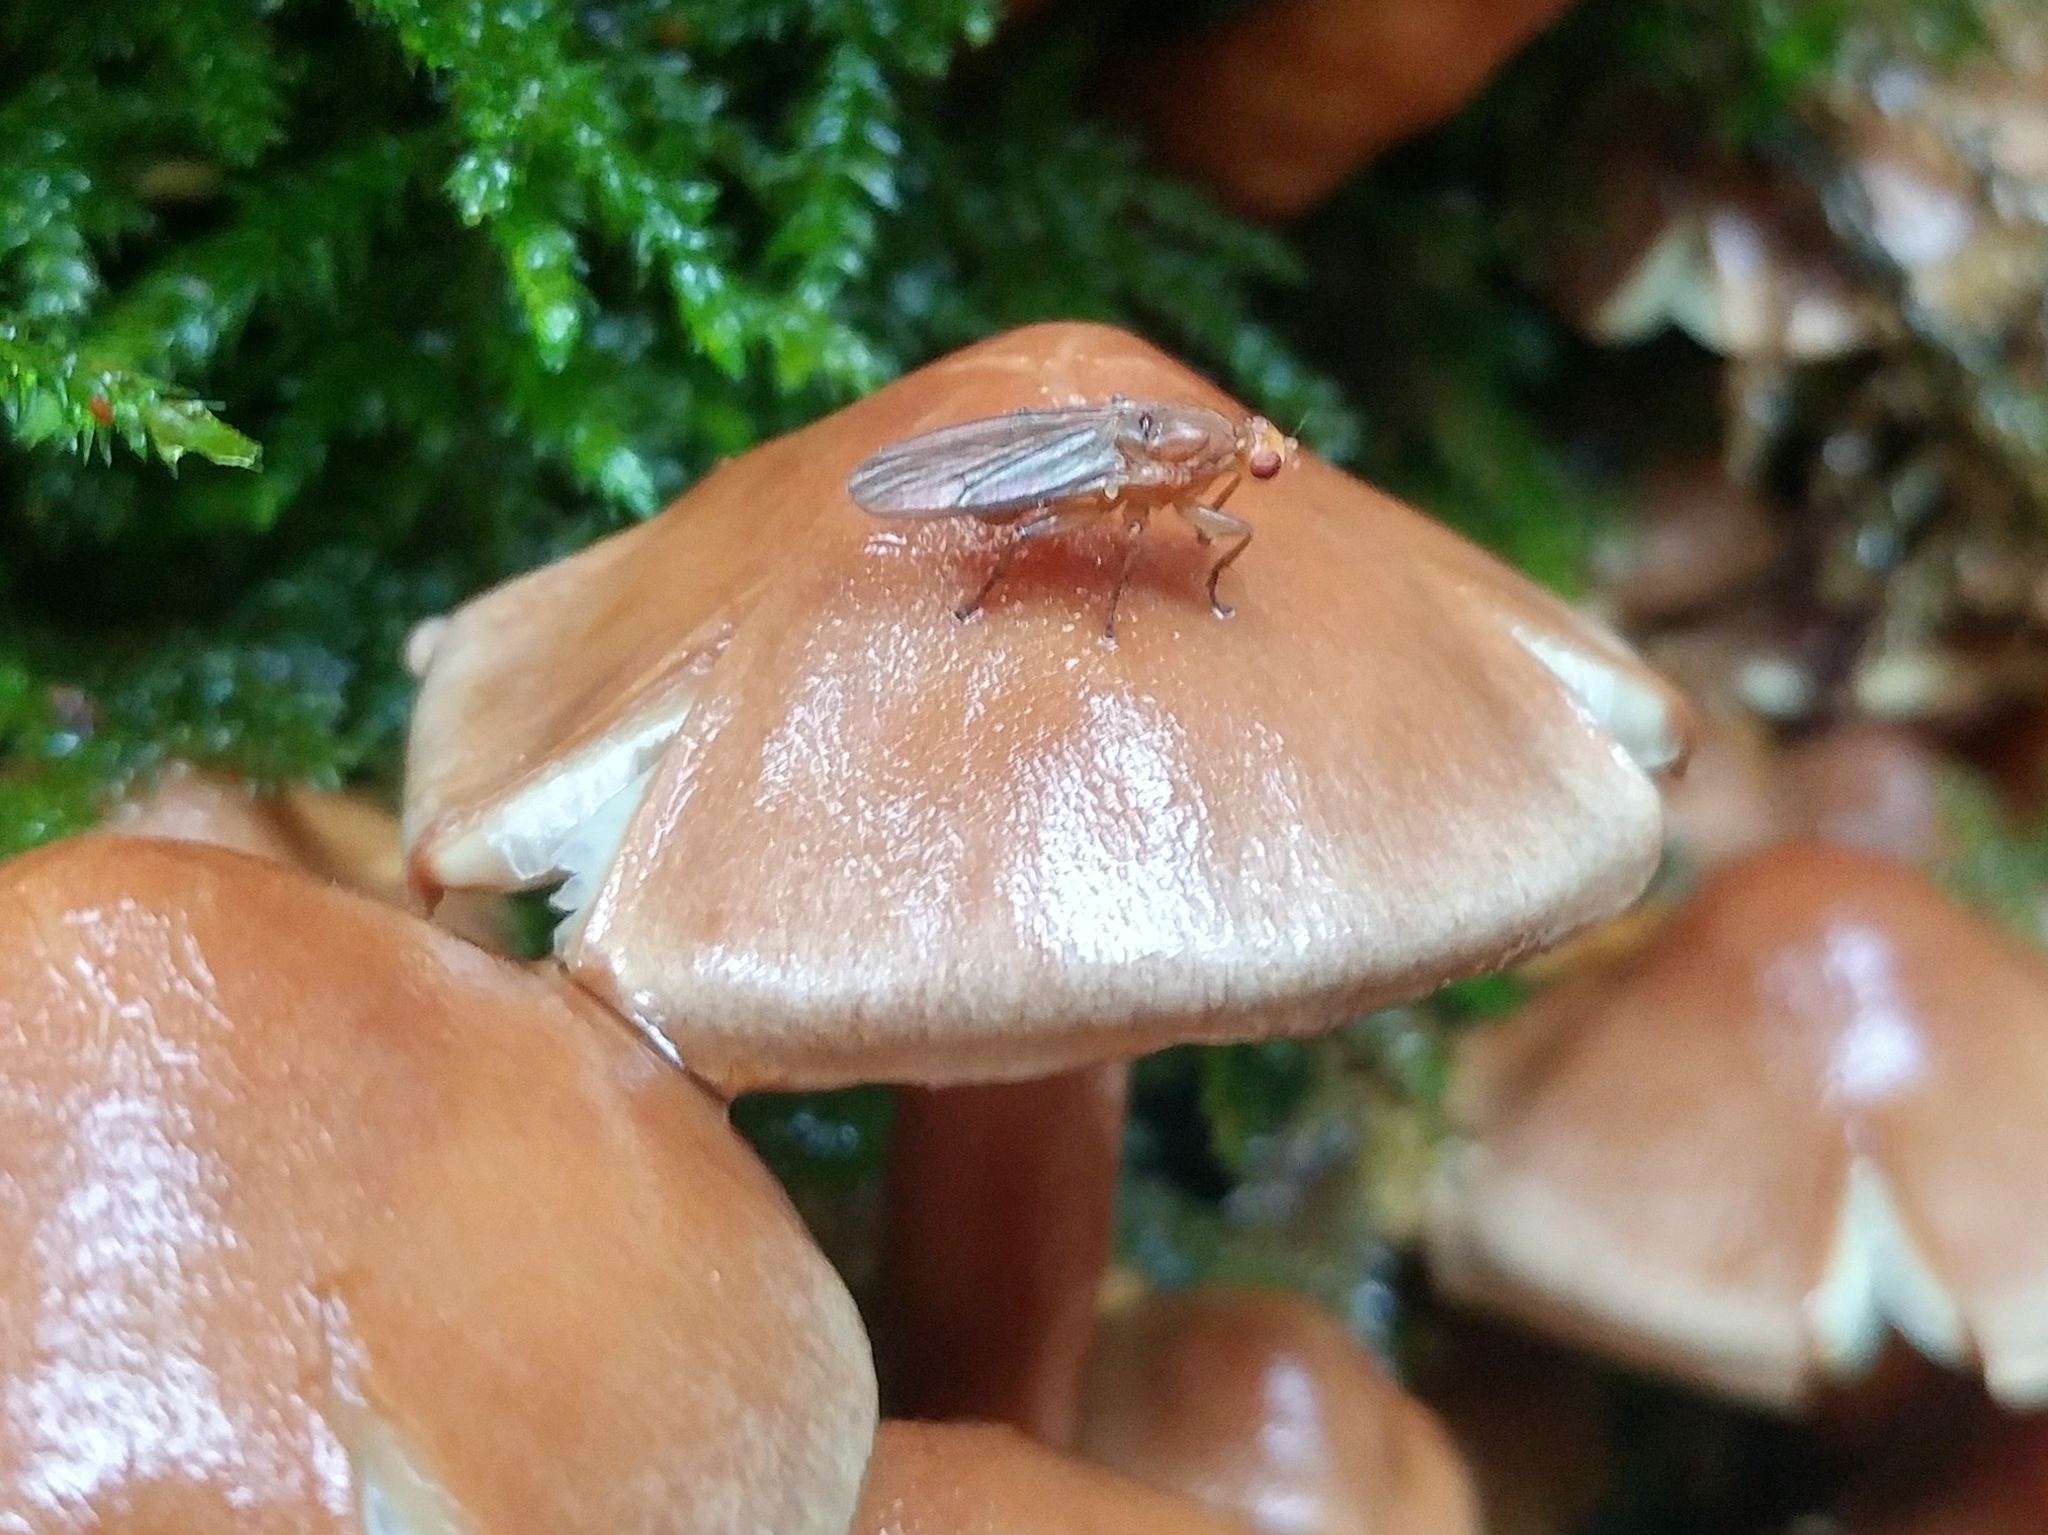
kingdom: Animalia
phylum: Arthropoda
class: Insecta
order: Diptera
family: Heleomyzidae
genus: Suillia
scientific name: Suillia convergens
